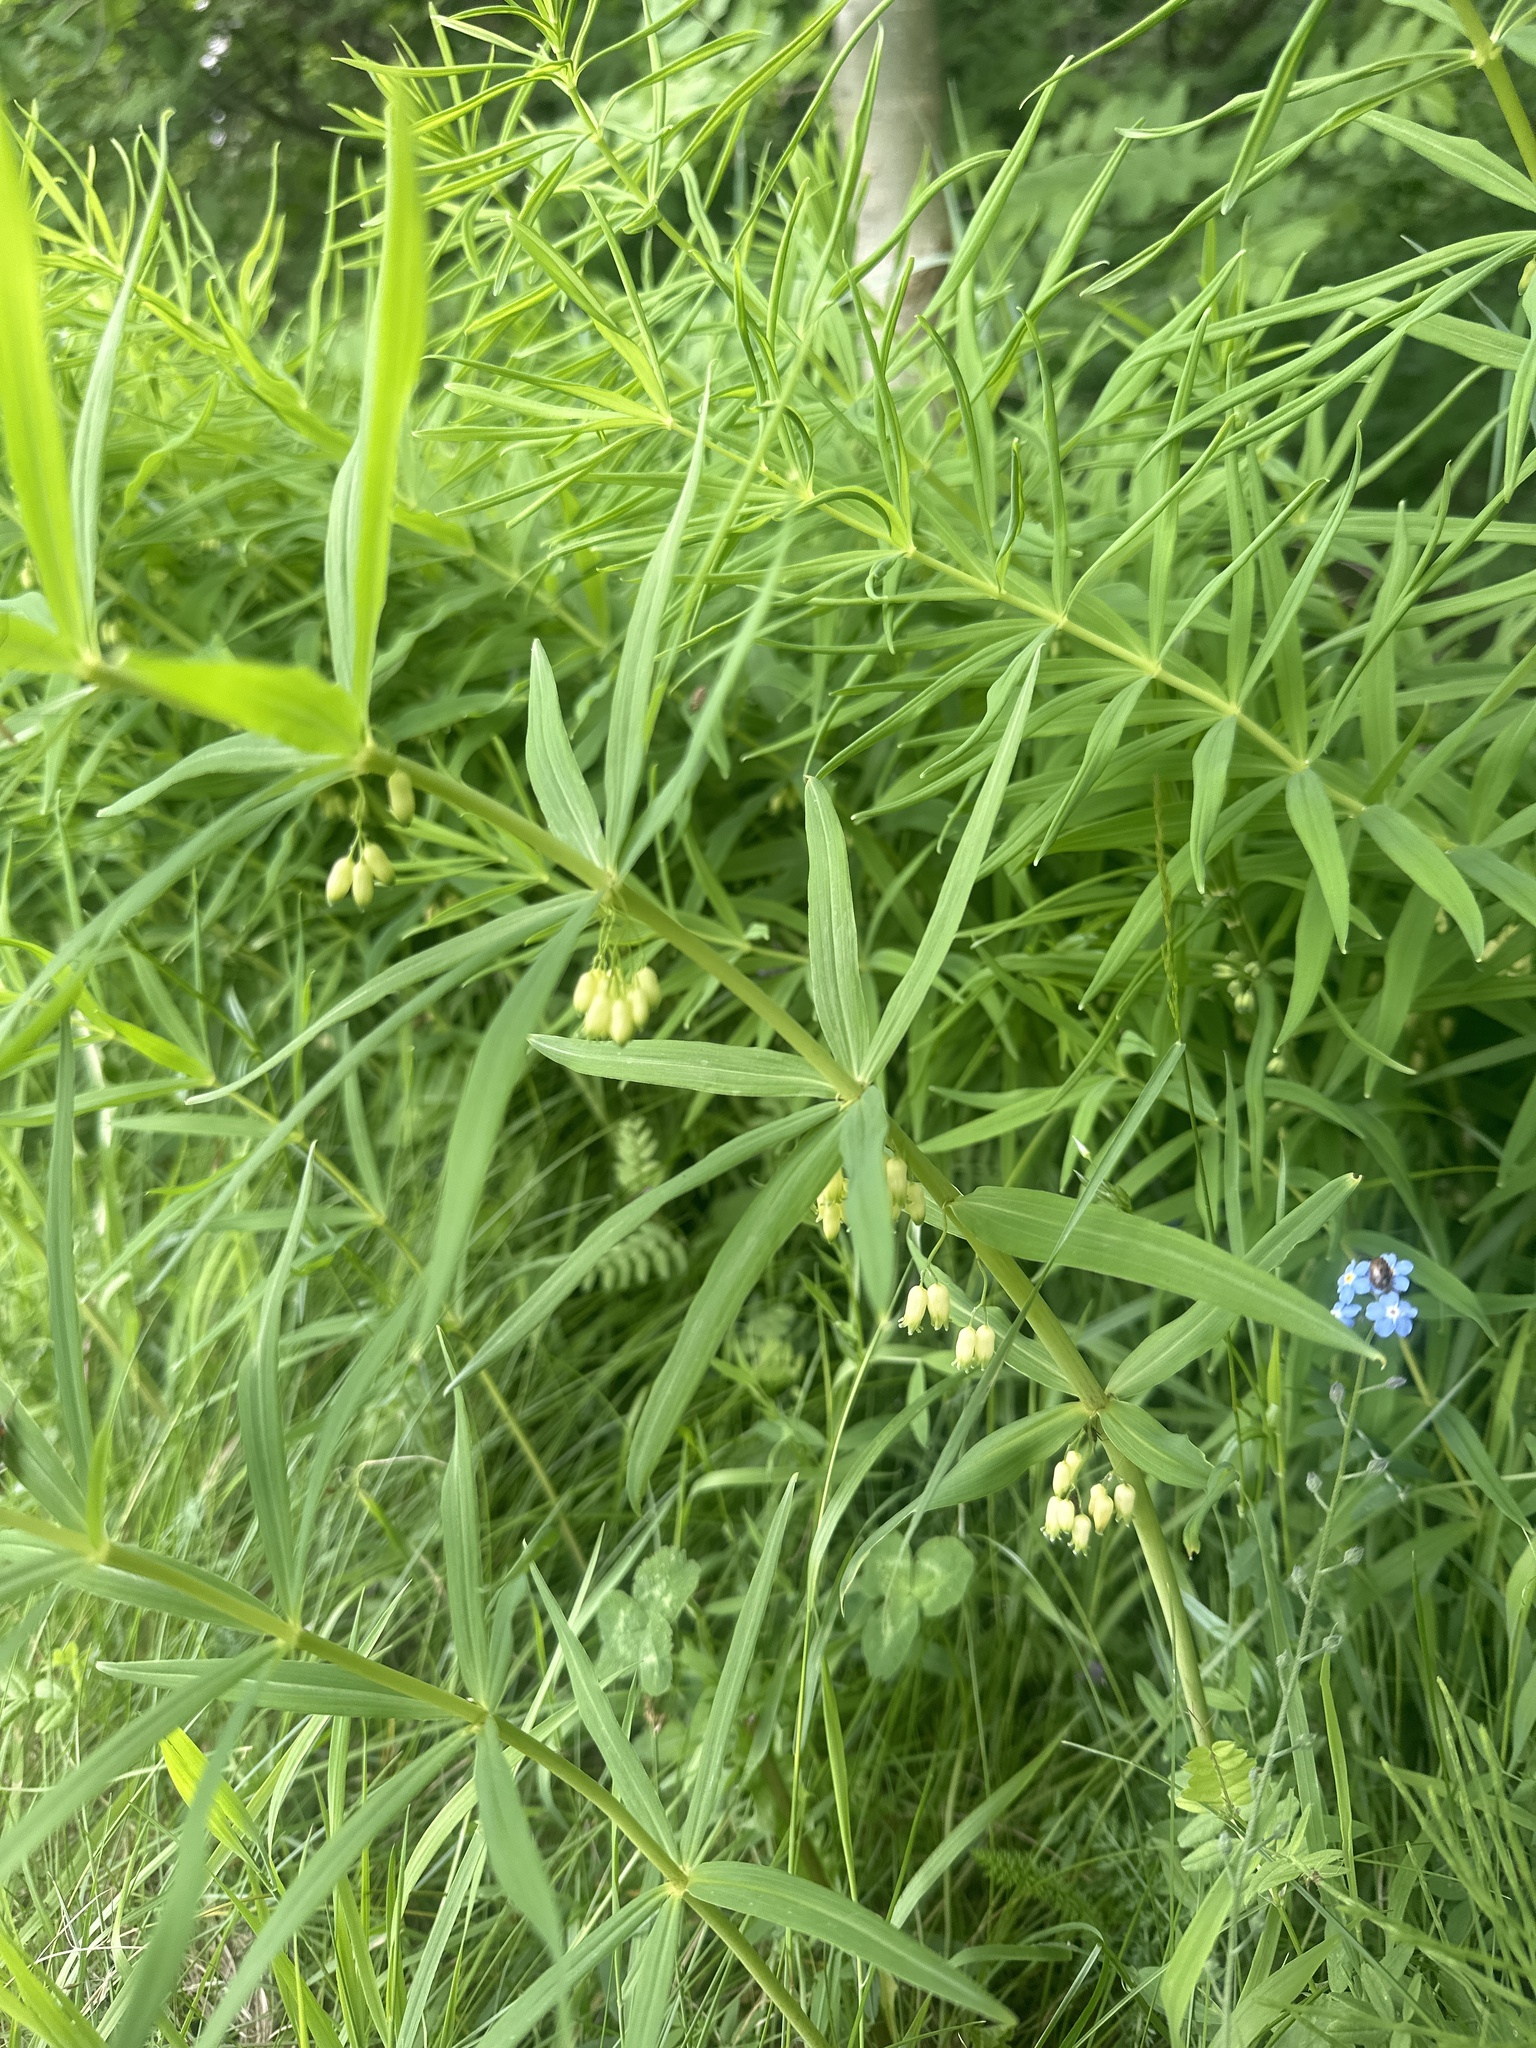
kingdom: Plantae
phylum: Tracheophyta
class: Liliopsida
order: Asparagales
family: Asparagaceae
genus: Polygonatum
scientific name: Polygonatum verticillatum
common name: Whorled solomon's-seal
